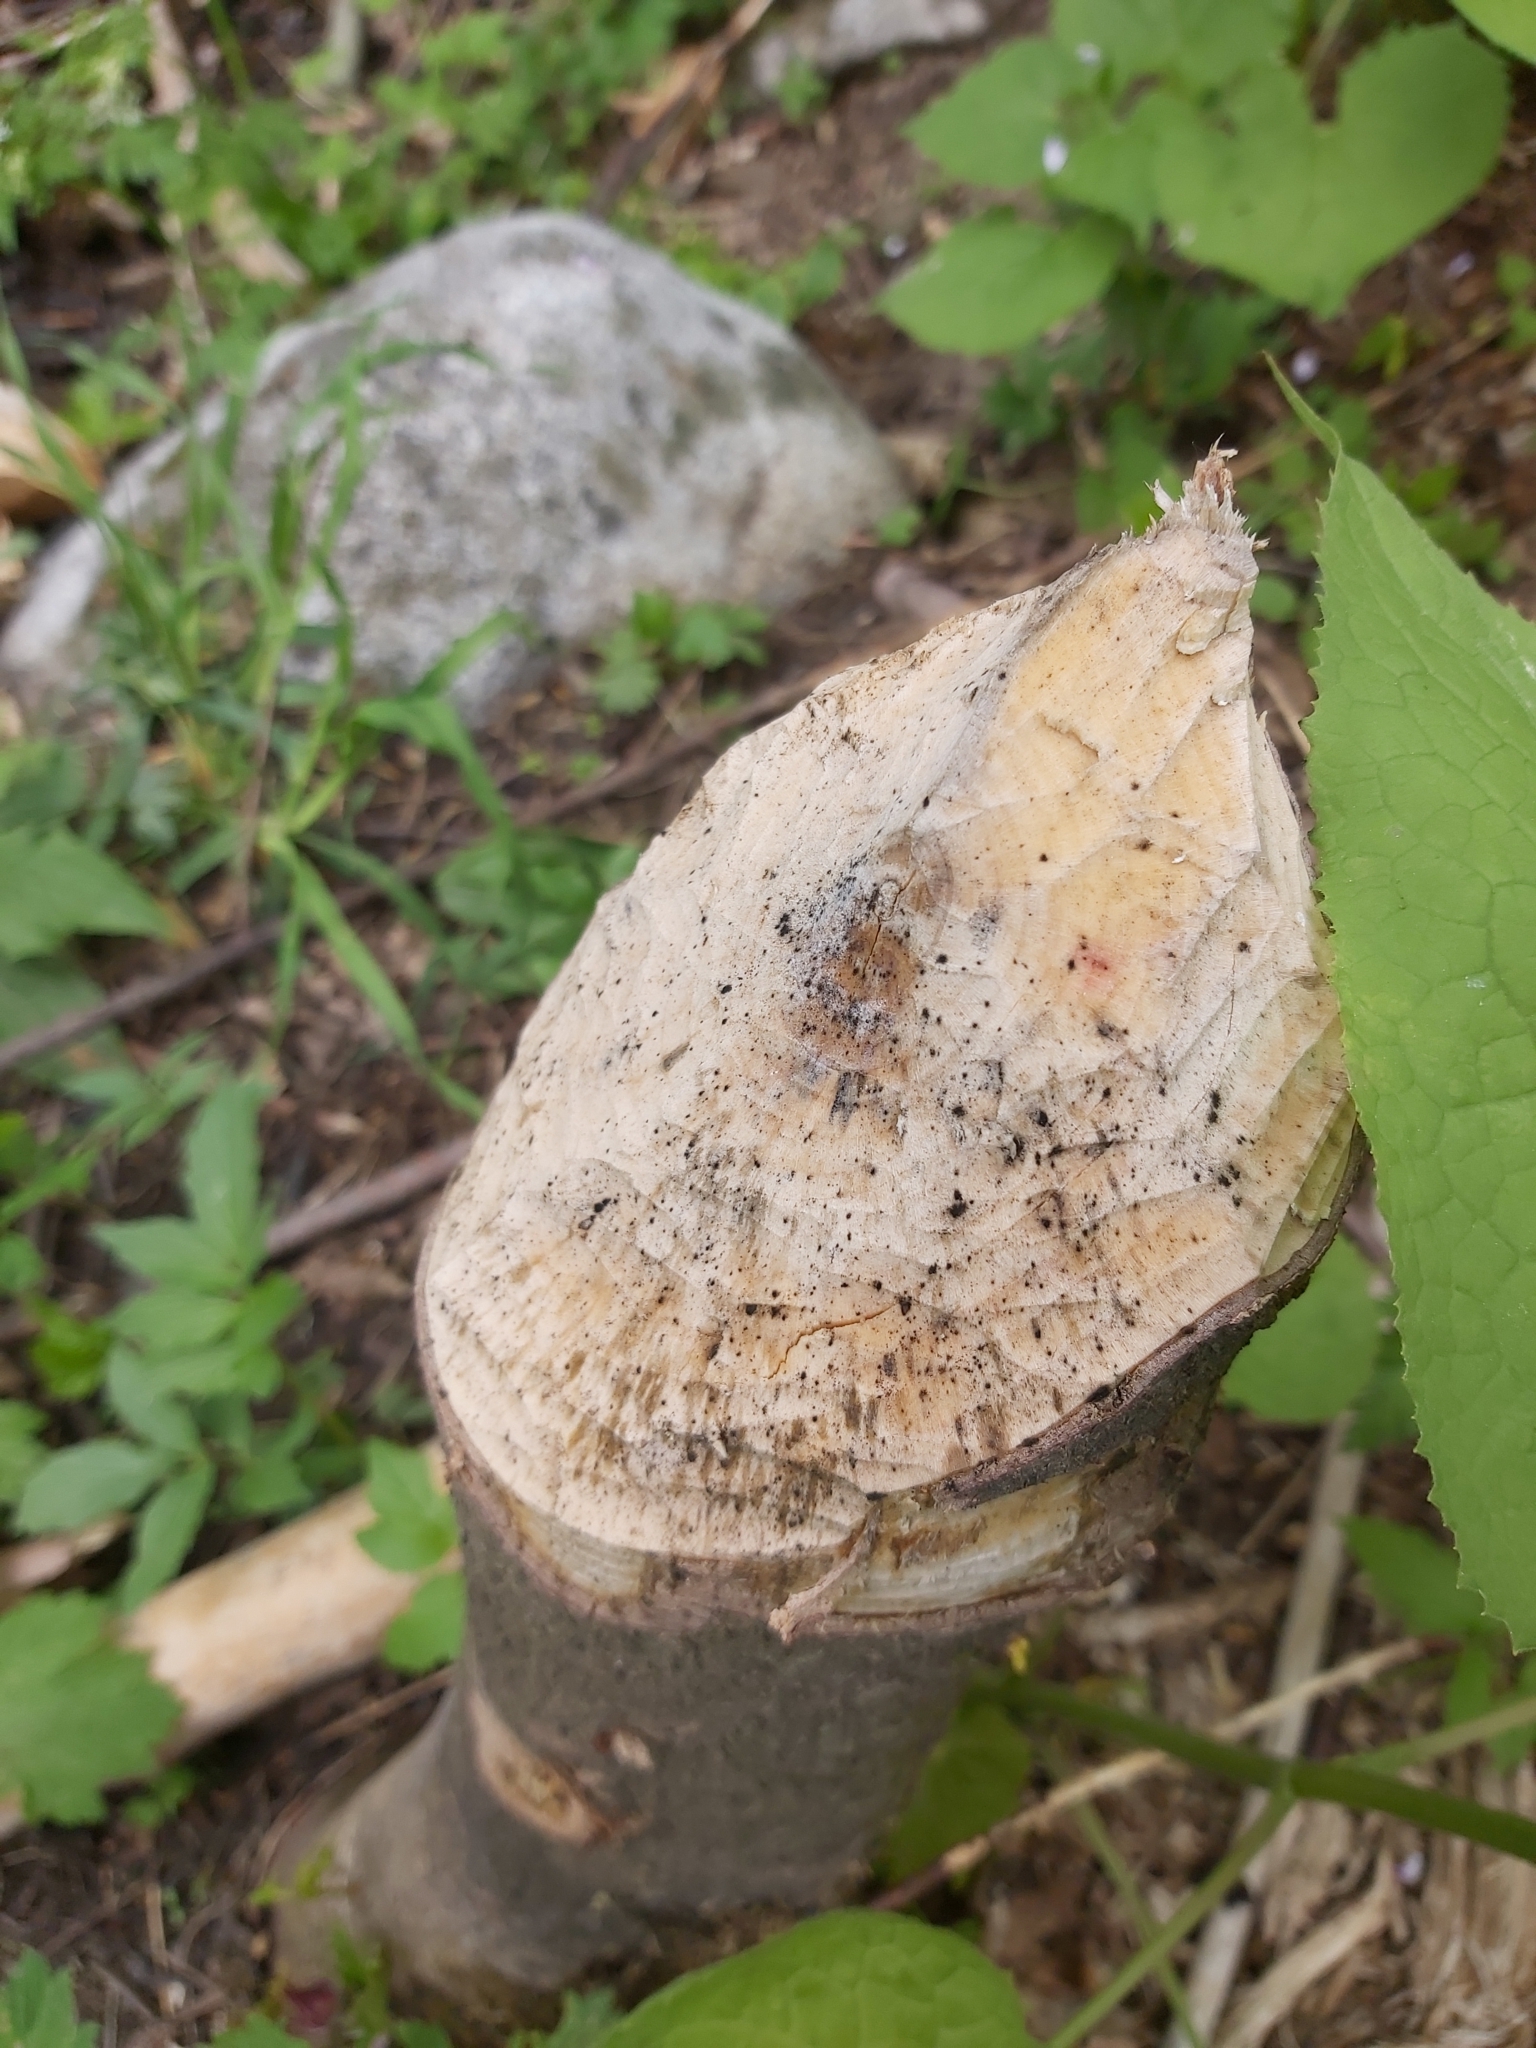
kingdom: Animalia
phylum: Chordata
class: Mammalia
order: Rodentia
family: Castoridae
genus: Castor
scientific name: Castor fiber
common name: Eurasian beaver
